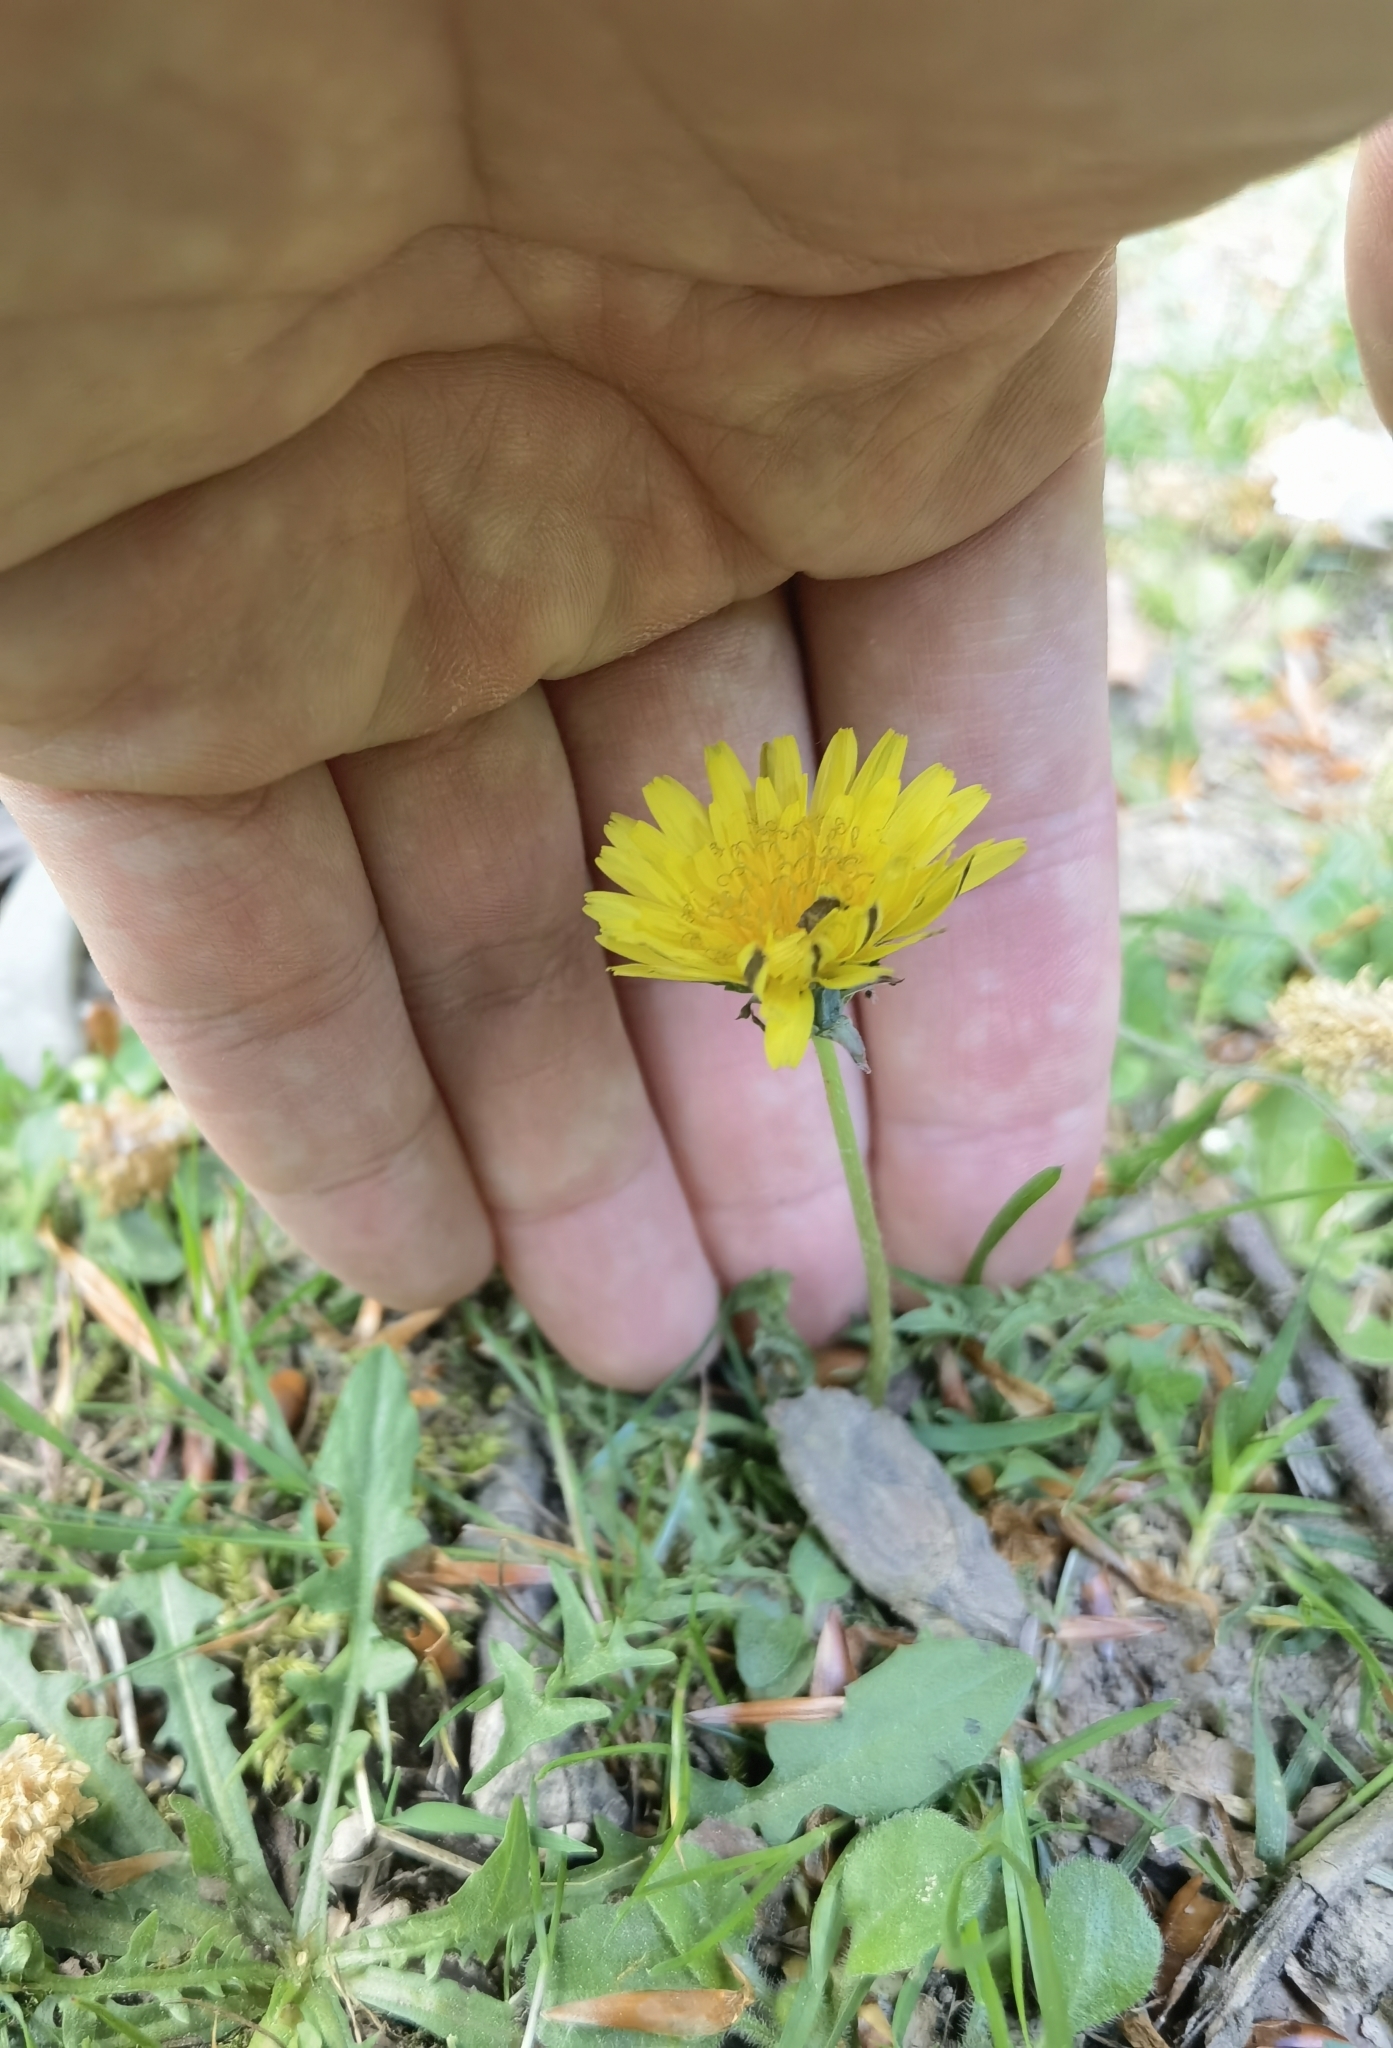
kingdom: Plantae
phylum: Tracheophyta
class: Magnoliopsida
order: Asterales
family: Asteraceae
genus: Taraxacum
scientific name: Taraxacum lacistophyllum
